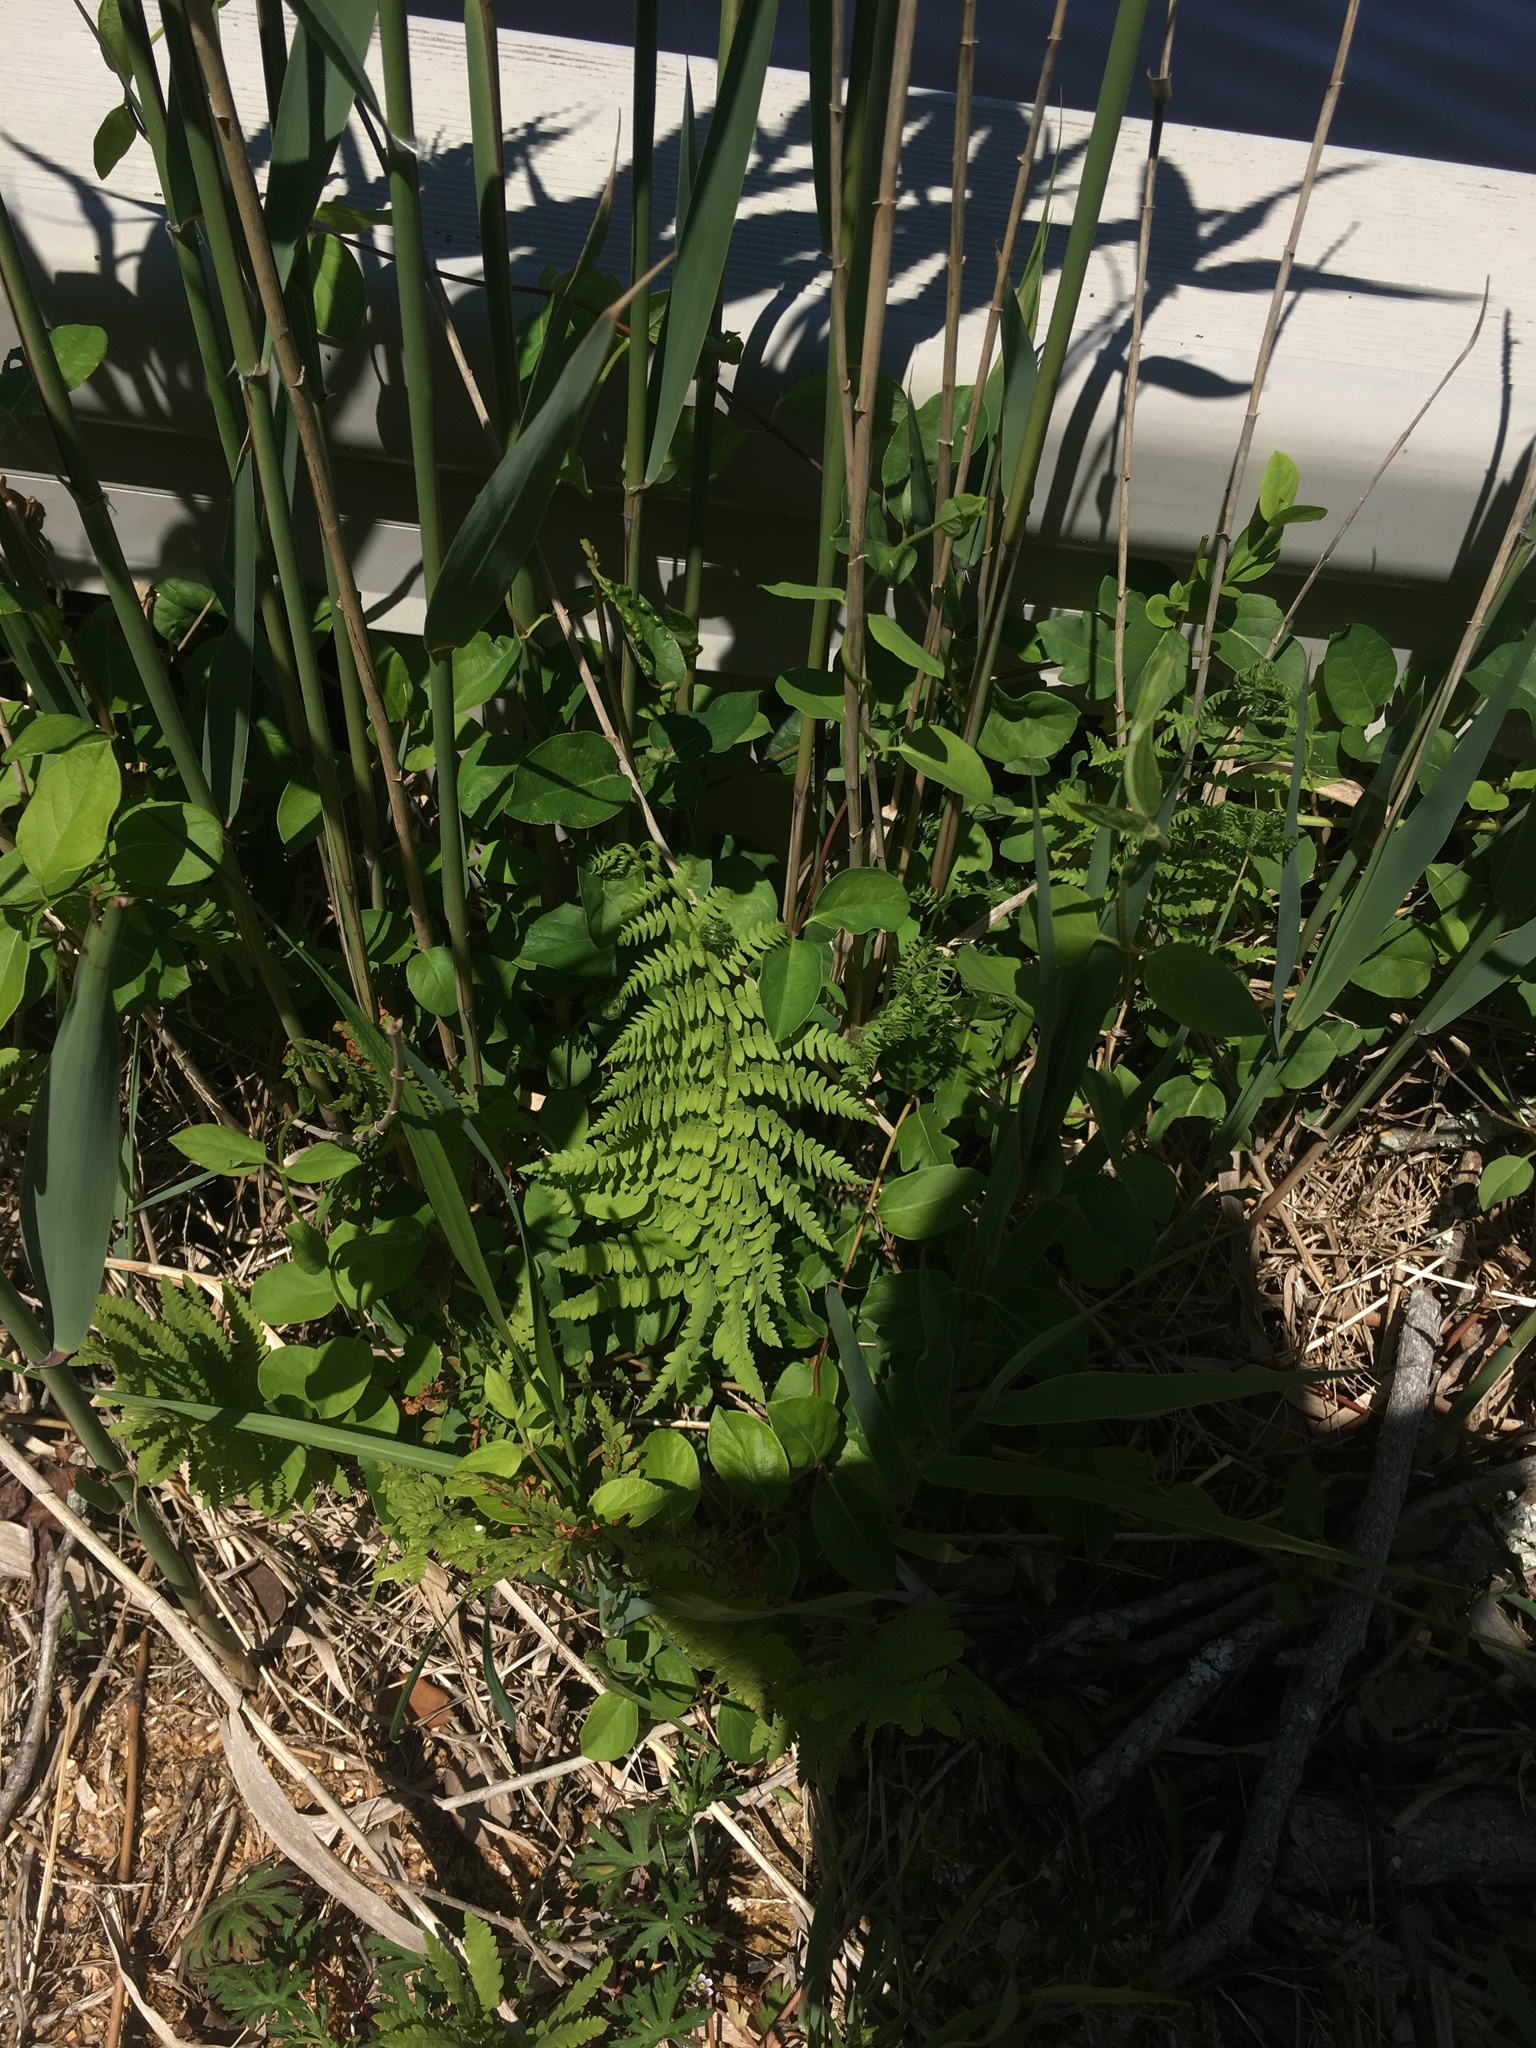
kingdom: Plantae
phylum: Tracheophyta
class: Polypodiopsida
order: Polypodiales
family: Thelypteridaceae
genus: Thelypteris
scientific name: Thelypteris palustris
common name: Marsh fern
